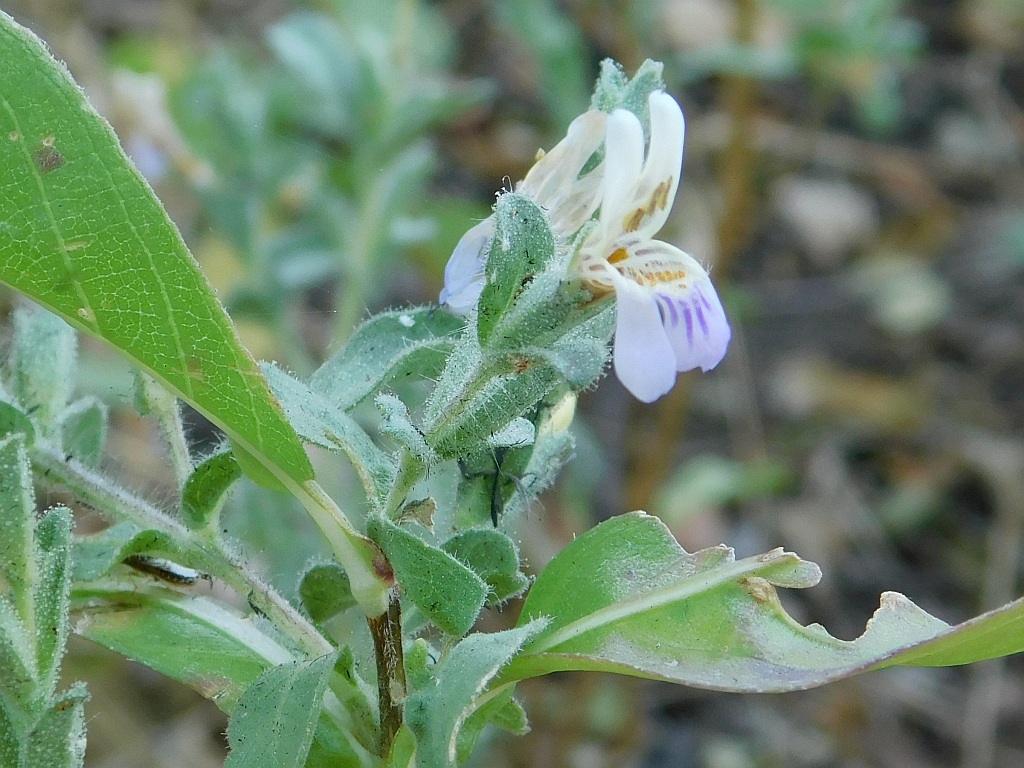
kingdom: Plantae
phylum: Tracheophyta
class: Magnoliopsida
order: Lamiales
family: Acanthaceae
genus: Duosperma
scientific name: Duosperma quadrangulare
